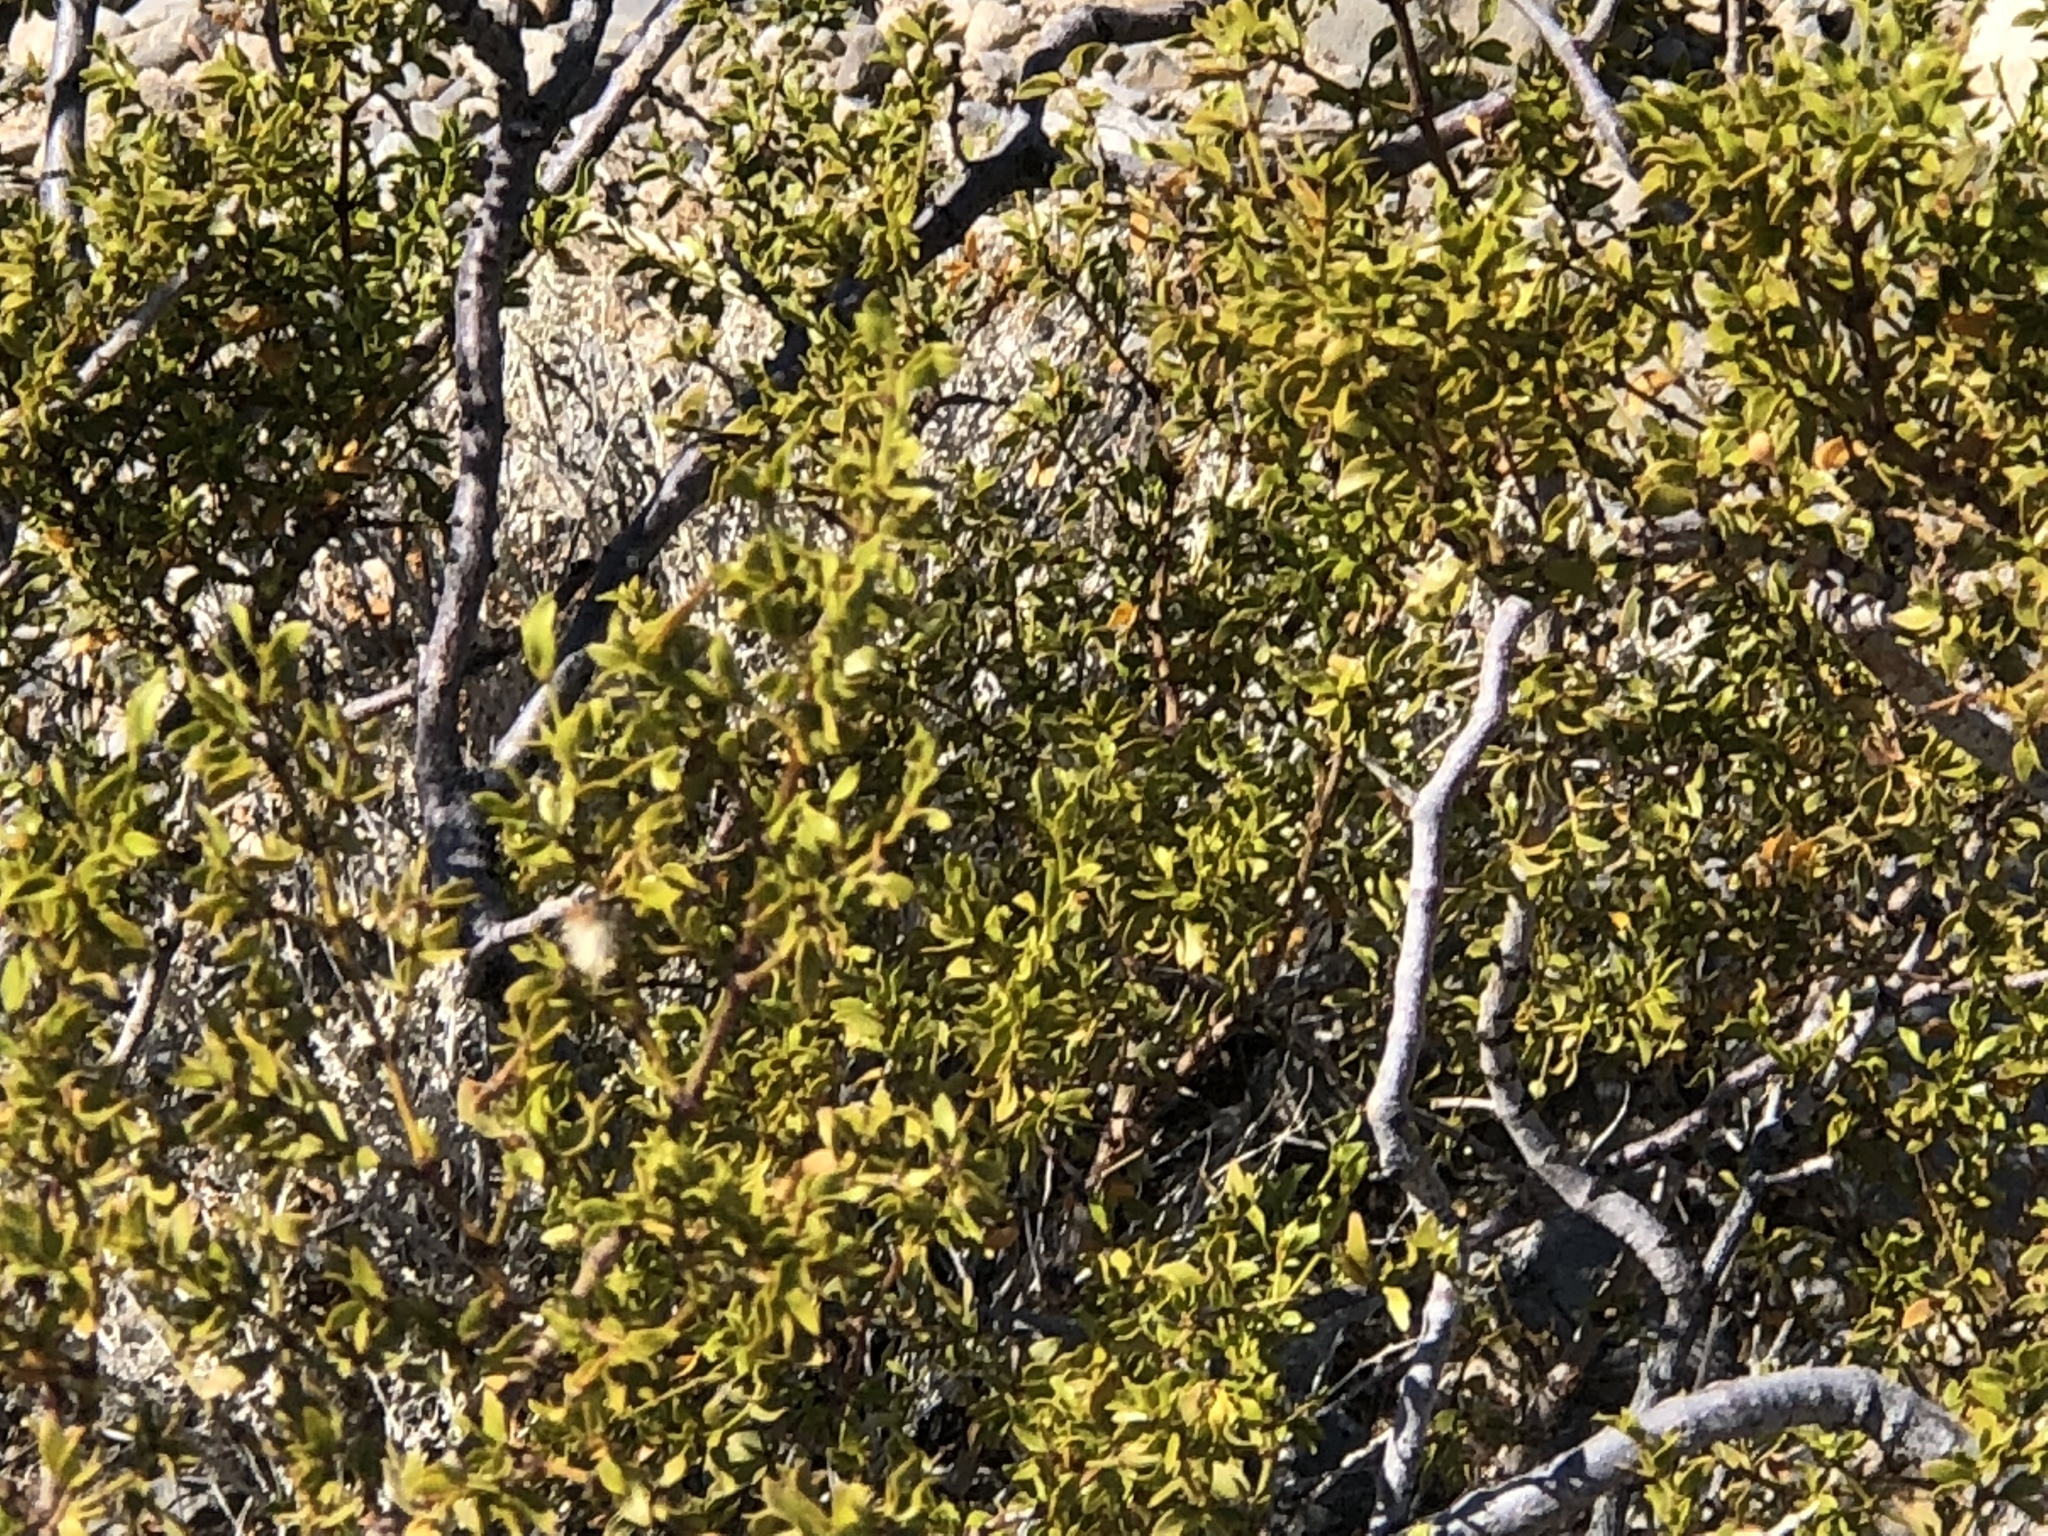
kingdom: Plantae
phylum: Tracheophyta
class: Magnoliopsida
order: Zygophyllales
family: Zygophyllaceae
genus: Larrea
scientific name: Larrea tridentata
